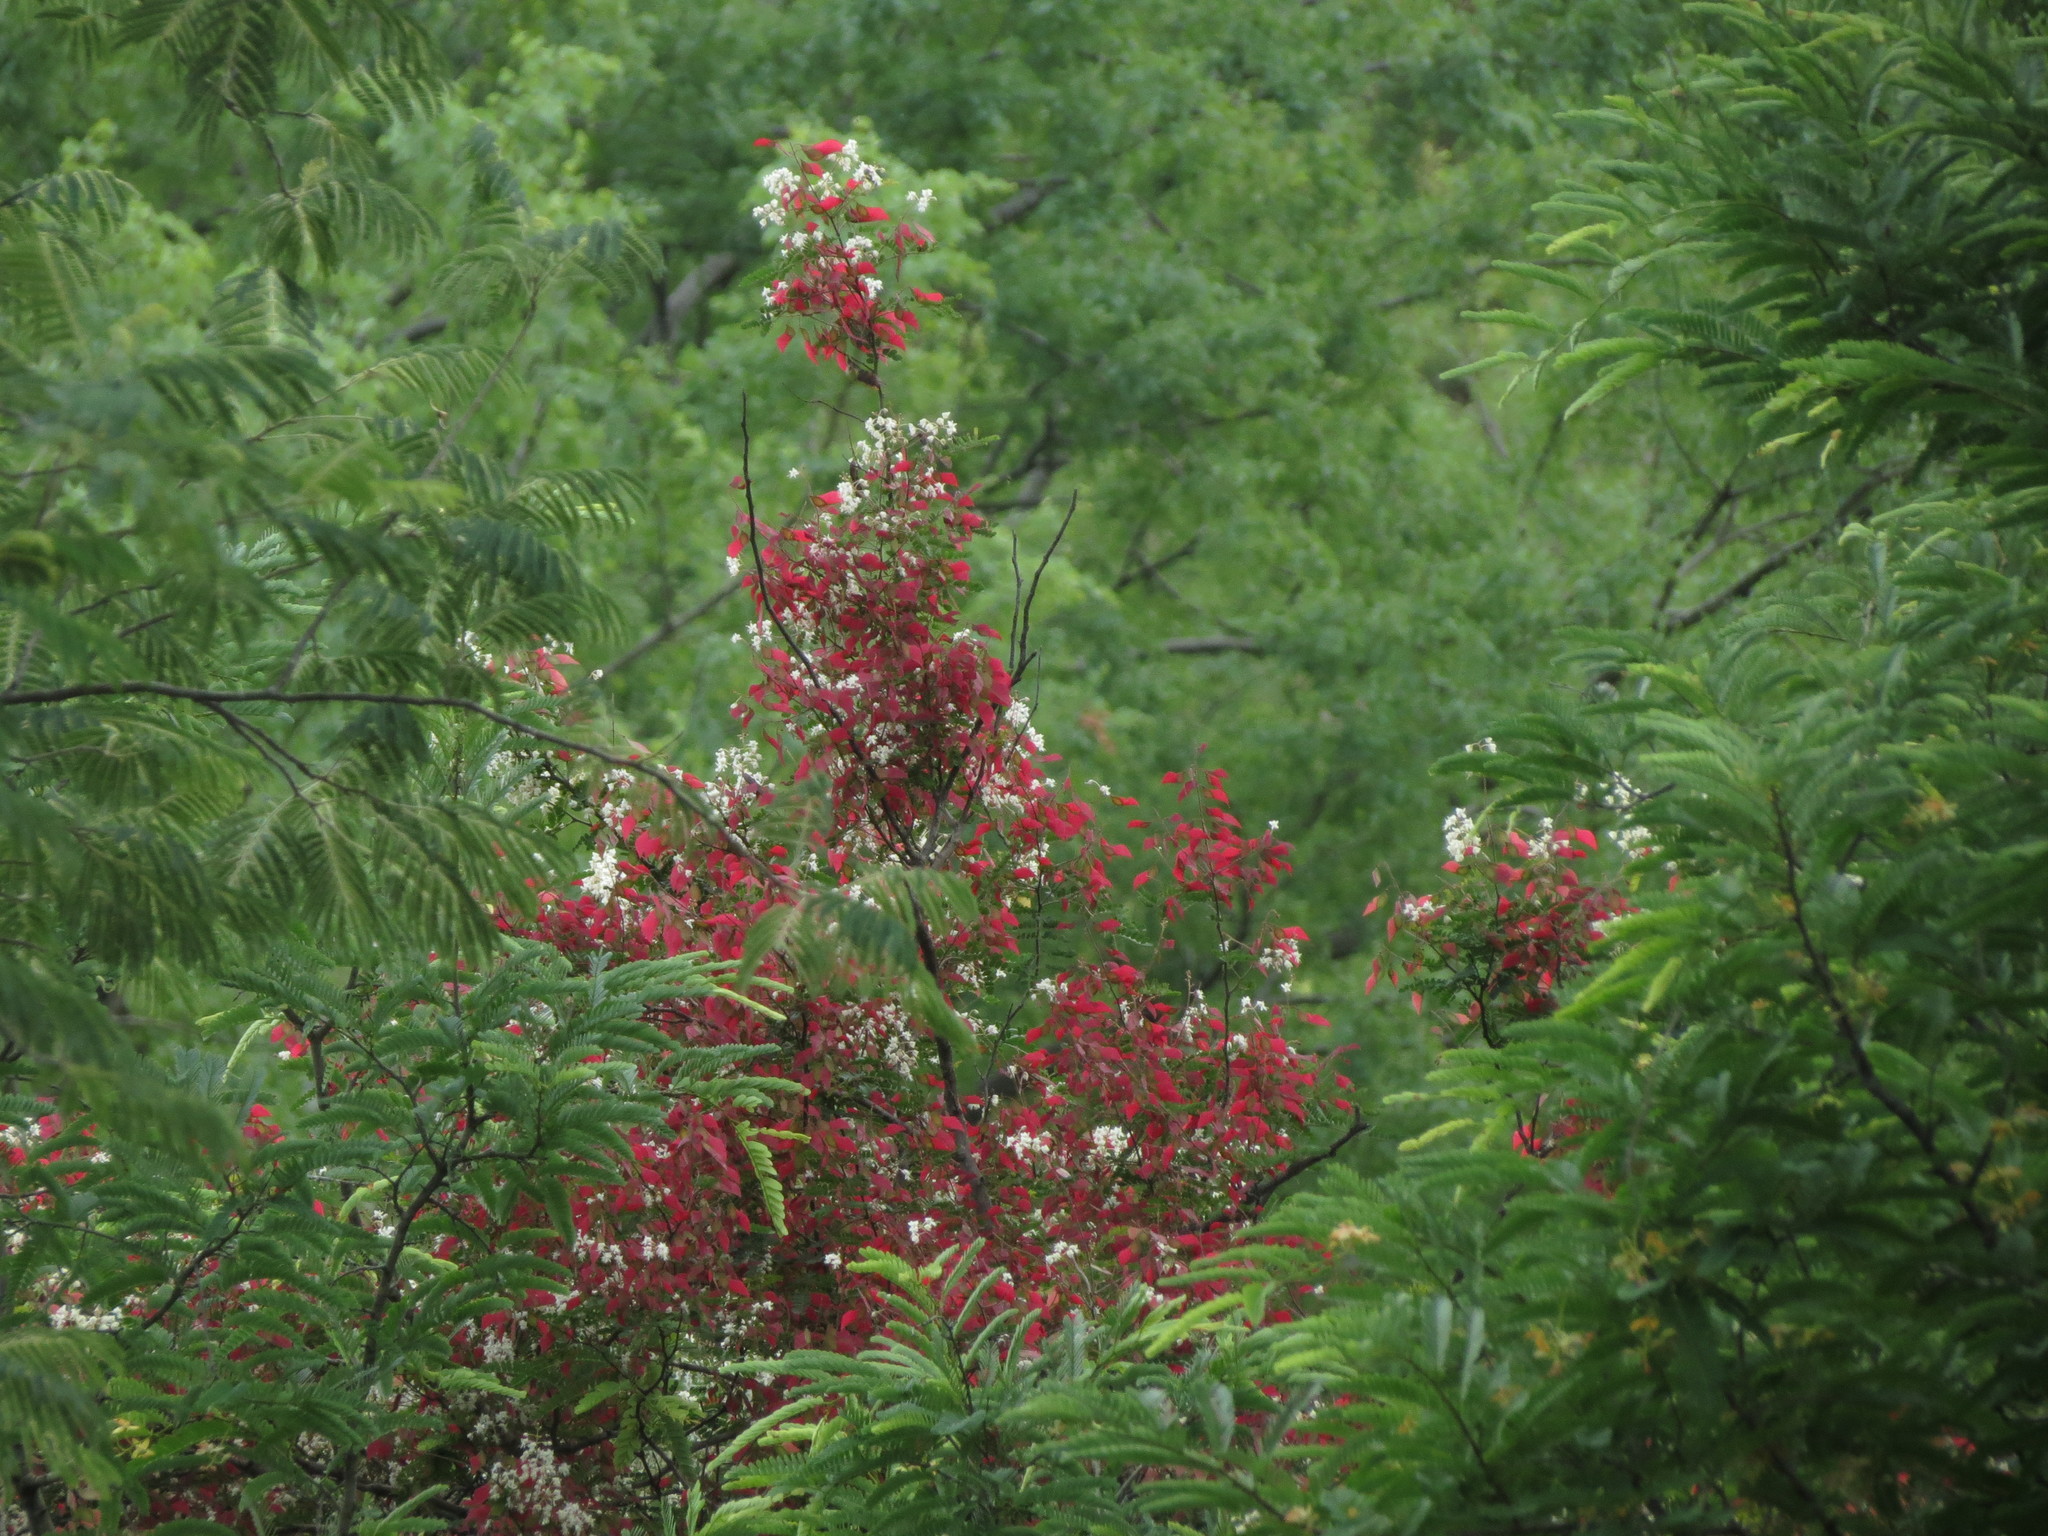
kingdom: Plantae
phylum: Tracheophyta
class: Magnoliopsida
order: Fabales
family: Fabaceae
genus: Pterolobium
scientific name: Pterolobium hexapetalum
